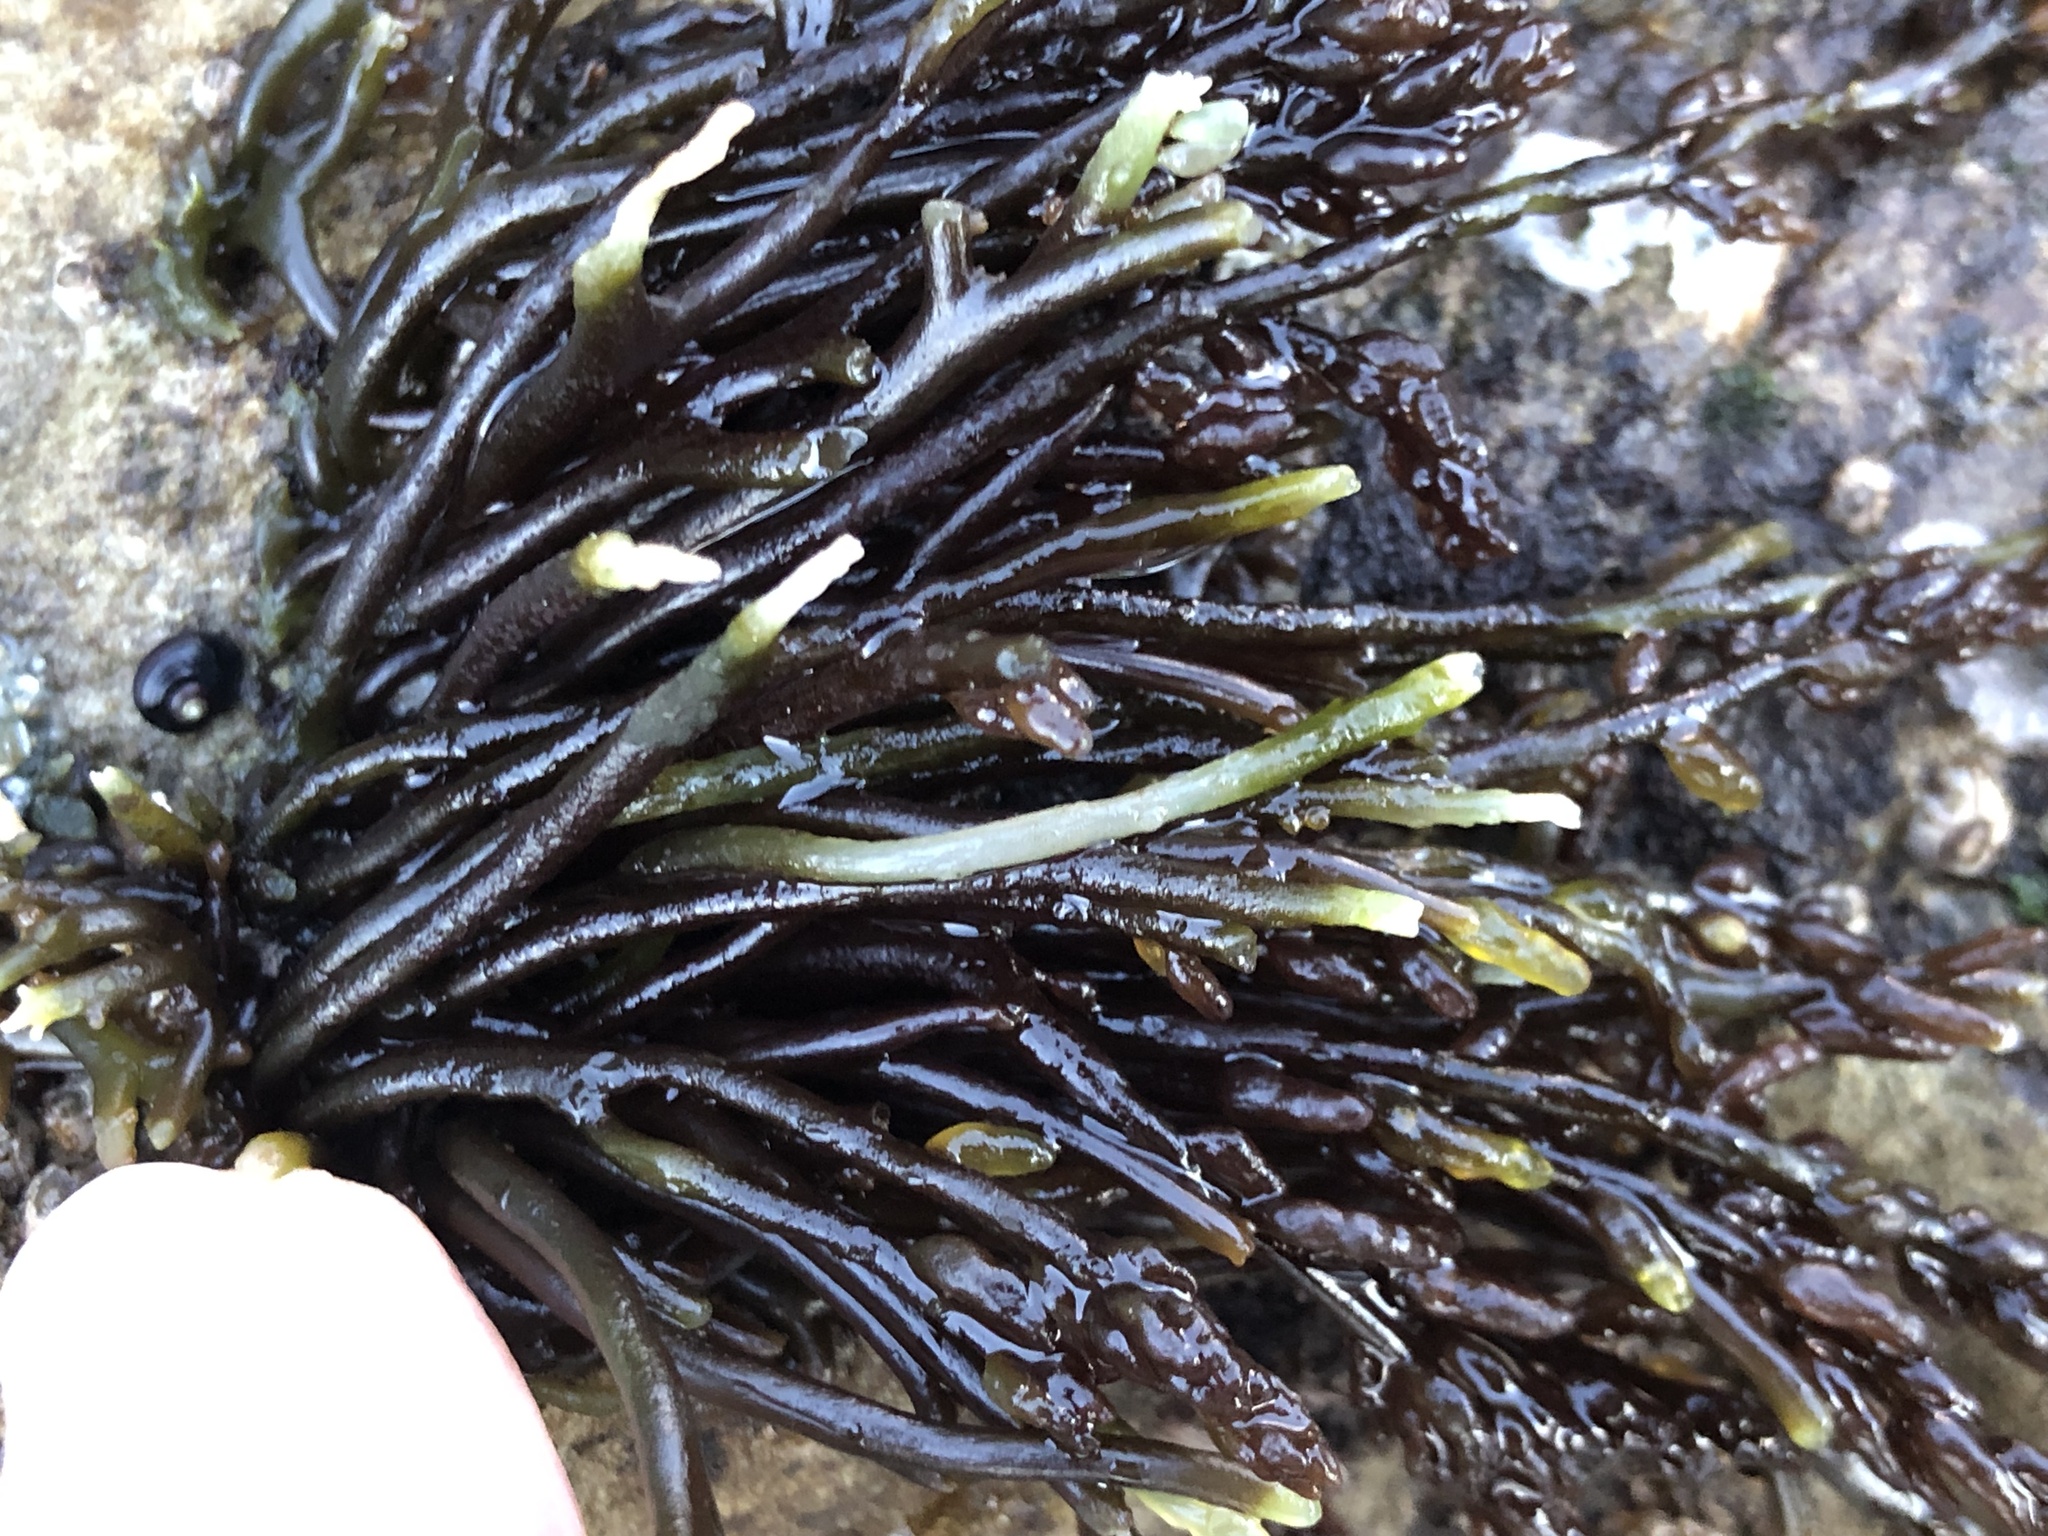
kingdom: Plantae
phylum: Rhodophyta
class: Florideophyceae
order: Rhodymeniales
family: Champiaceae
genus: Neogastroclonium
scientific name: Neogastroclonium subarticulatum
